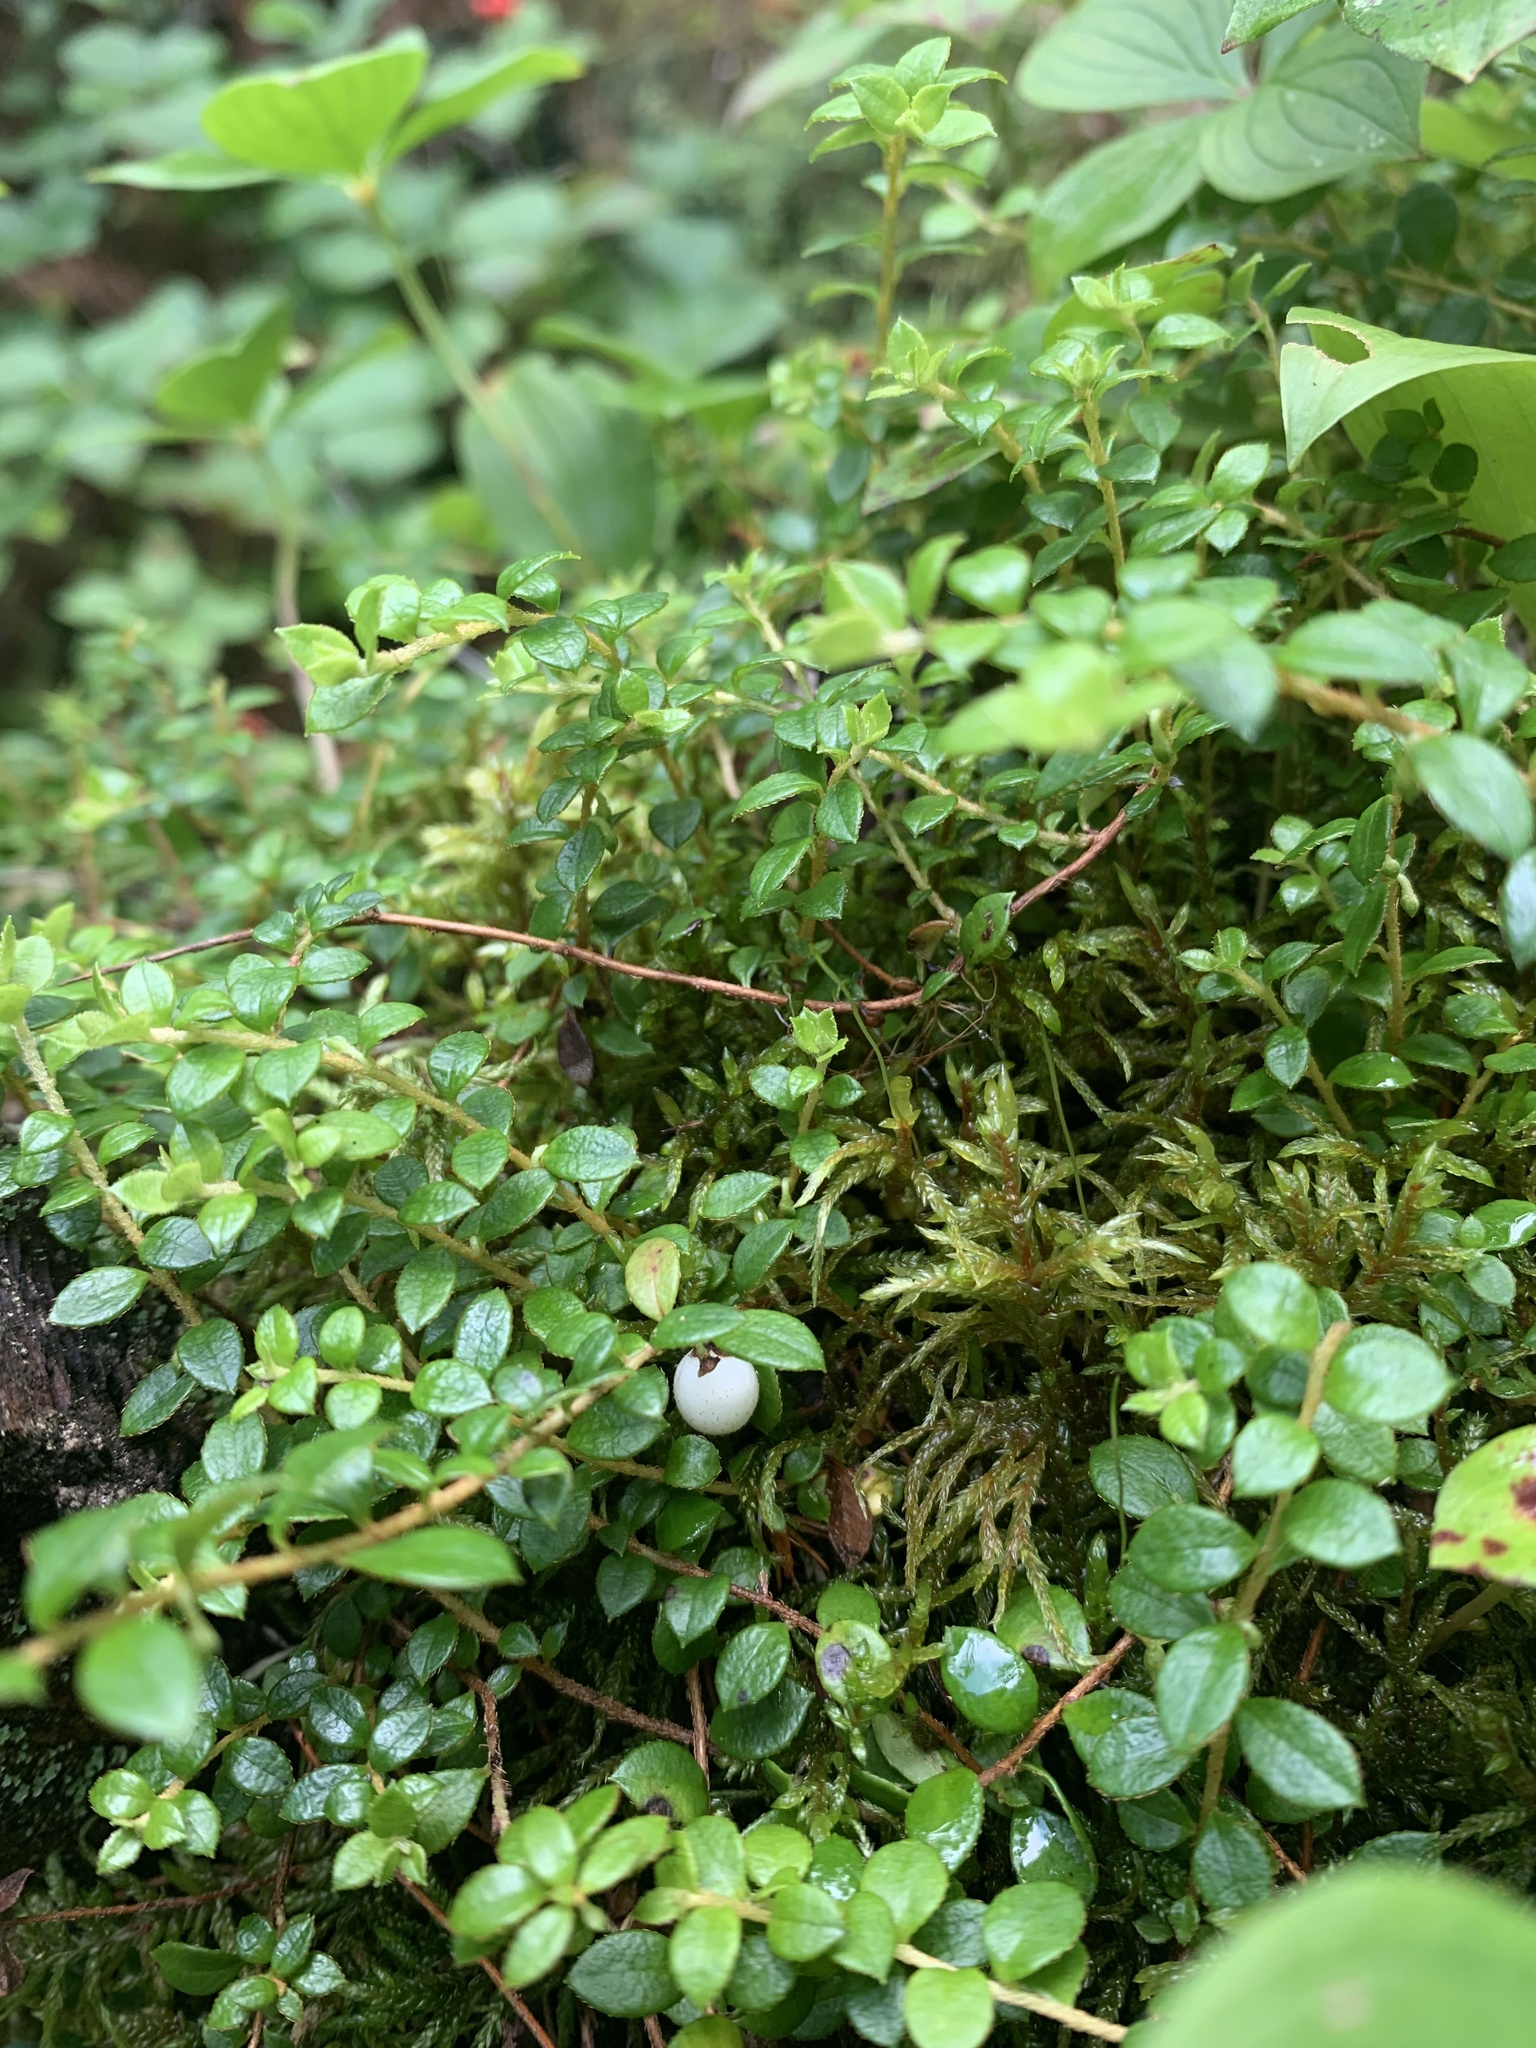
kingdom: Plantae
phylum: Tracheophyta
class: Magnoliopsida
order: Ericales
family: Ericaceae
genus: Gaultheria
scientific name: Gaultheria hispidula
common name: Cancer wintergreen
